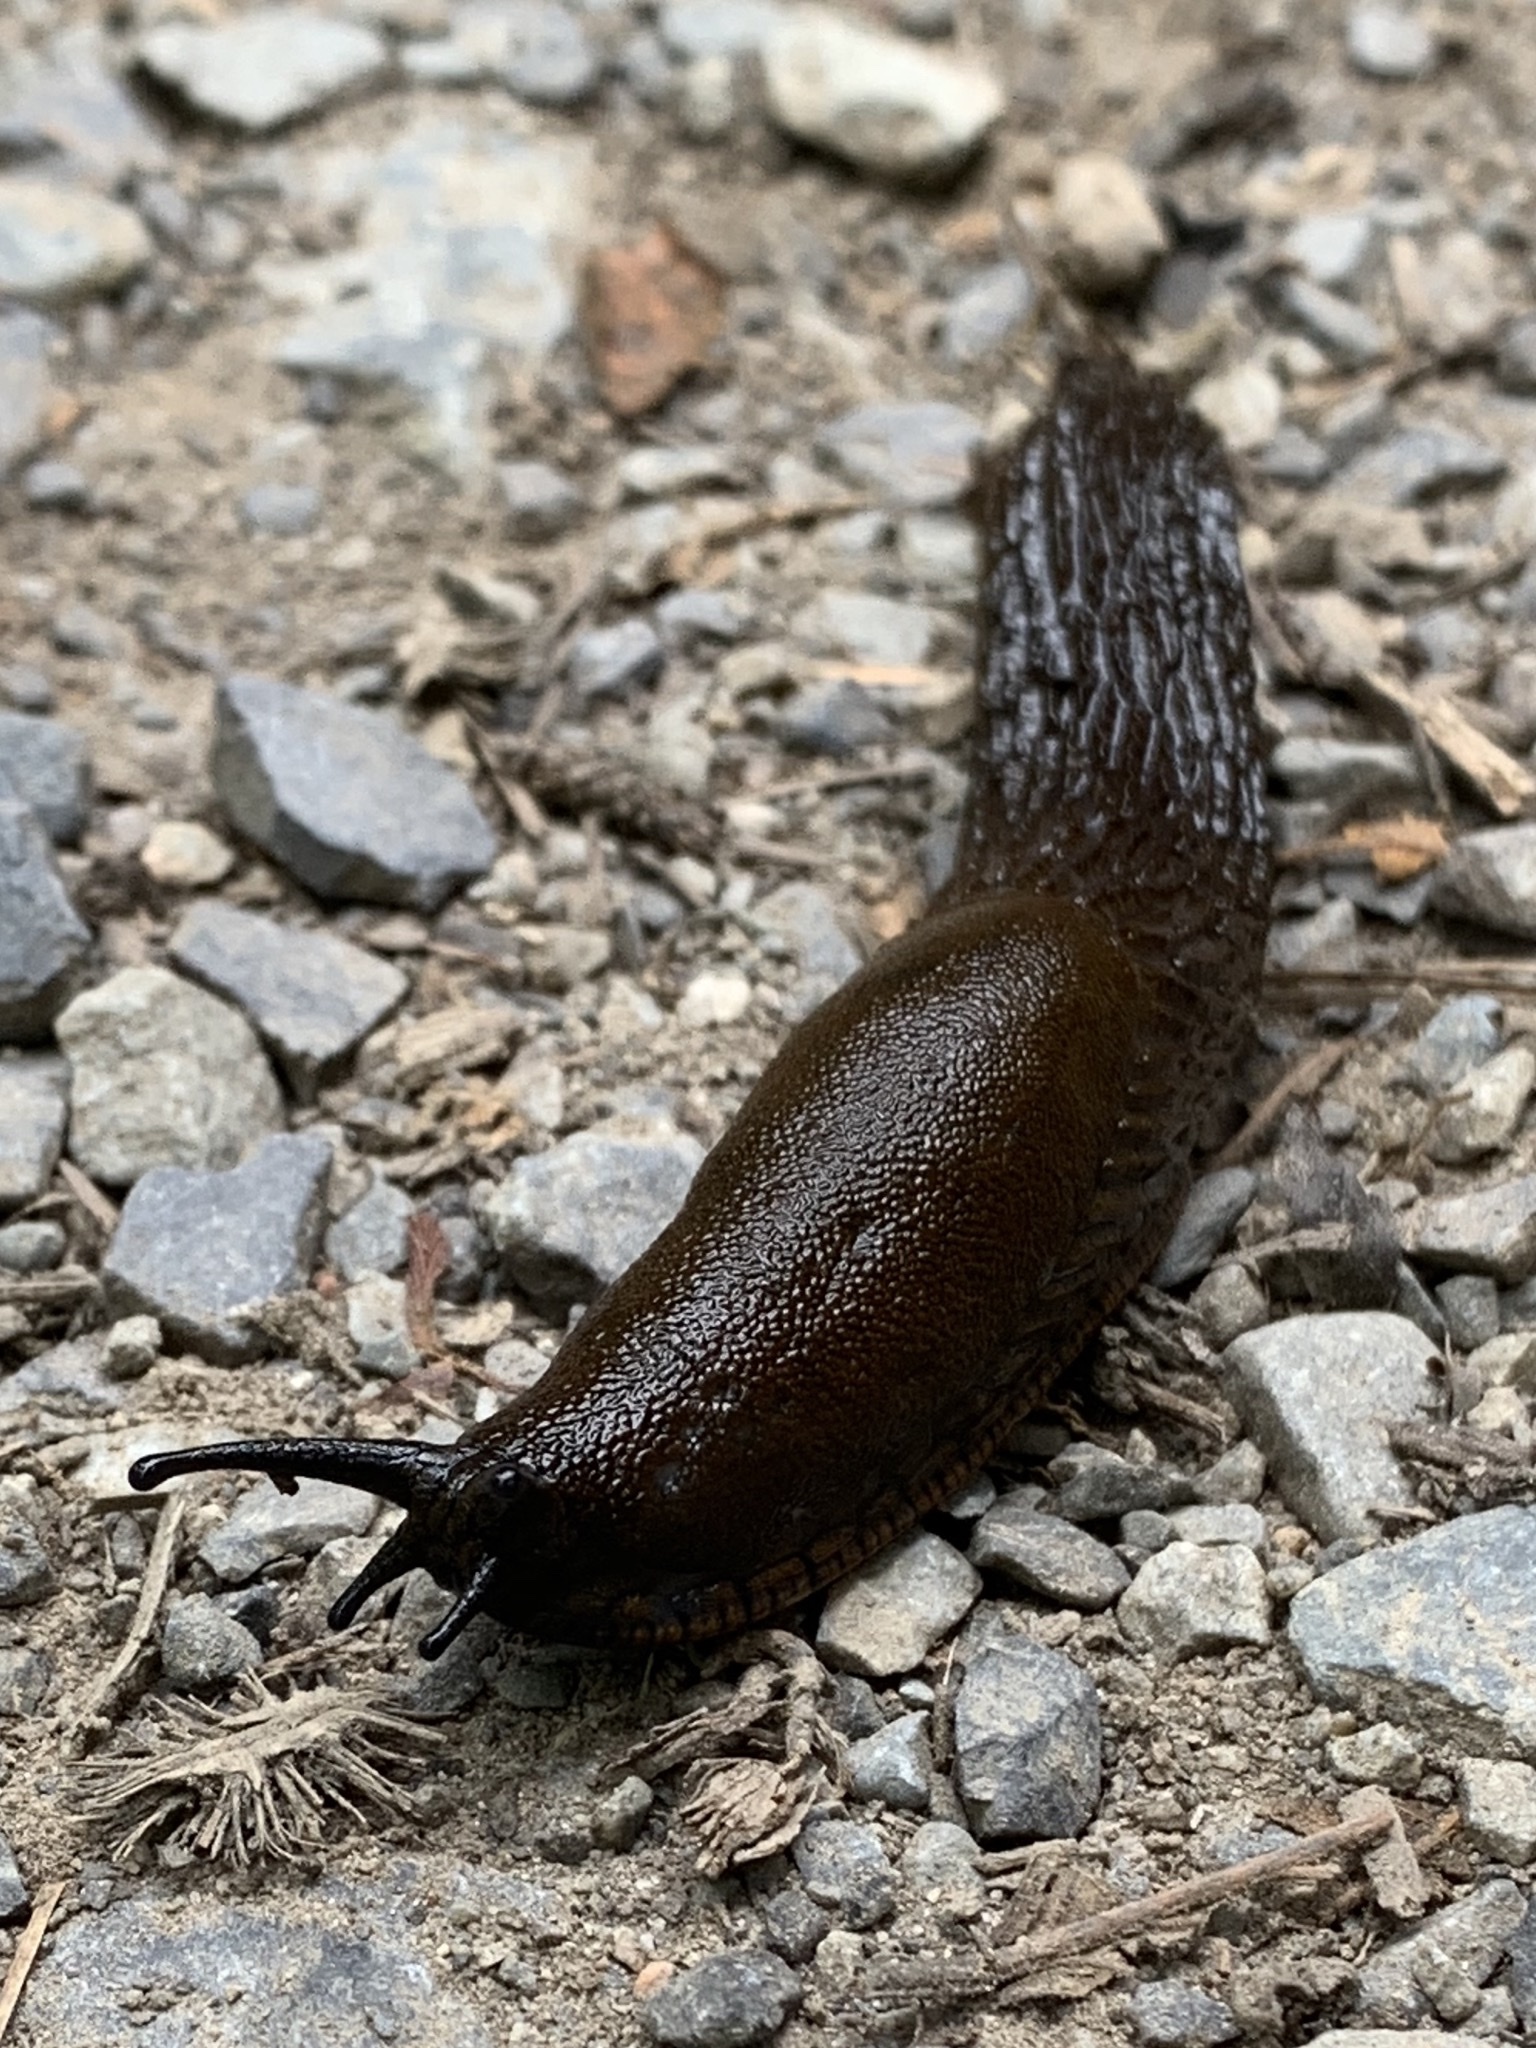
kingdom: Animalia
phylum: Mollusca
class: Gastropoda
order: Stylommatophora
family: Arionidae
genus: Arion
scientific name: Arion
